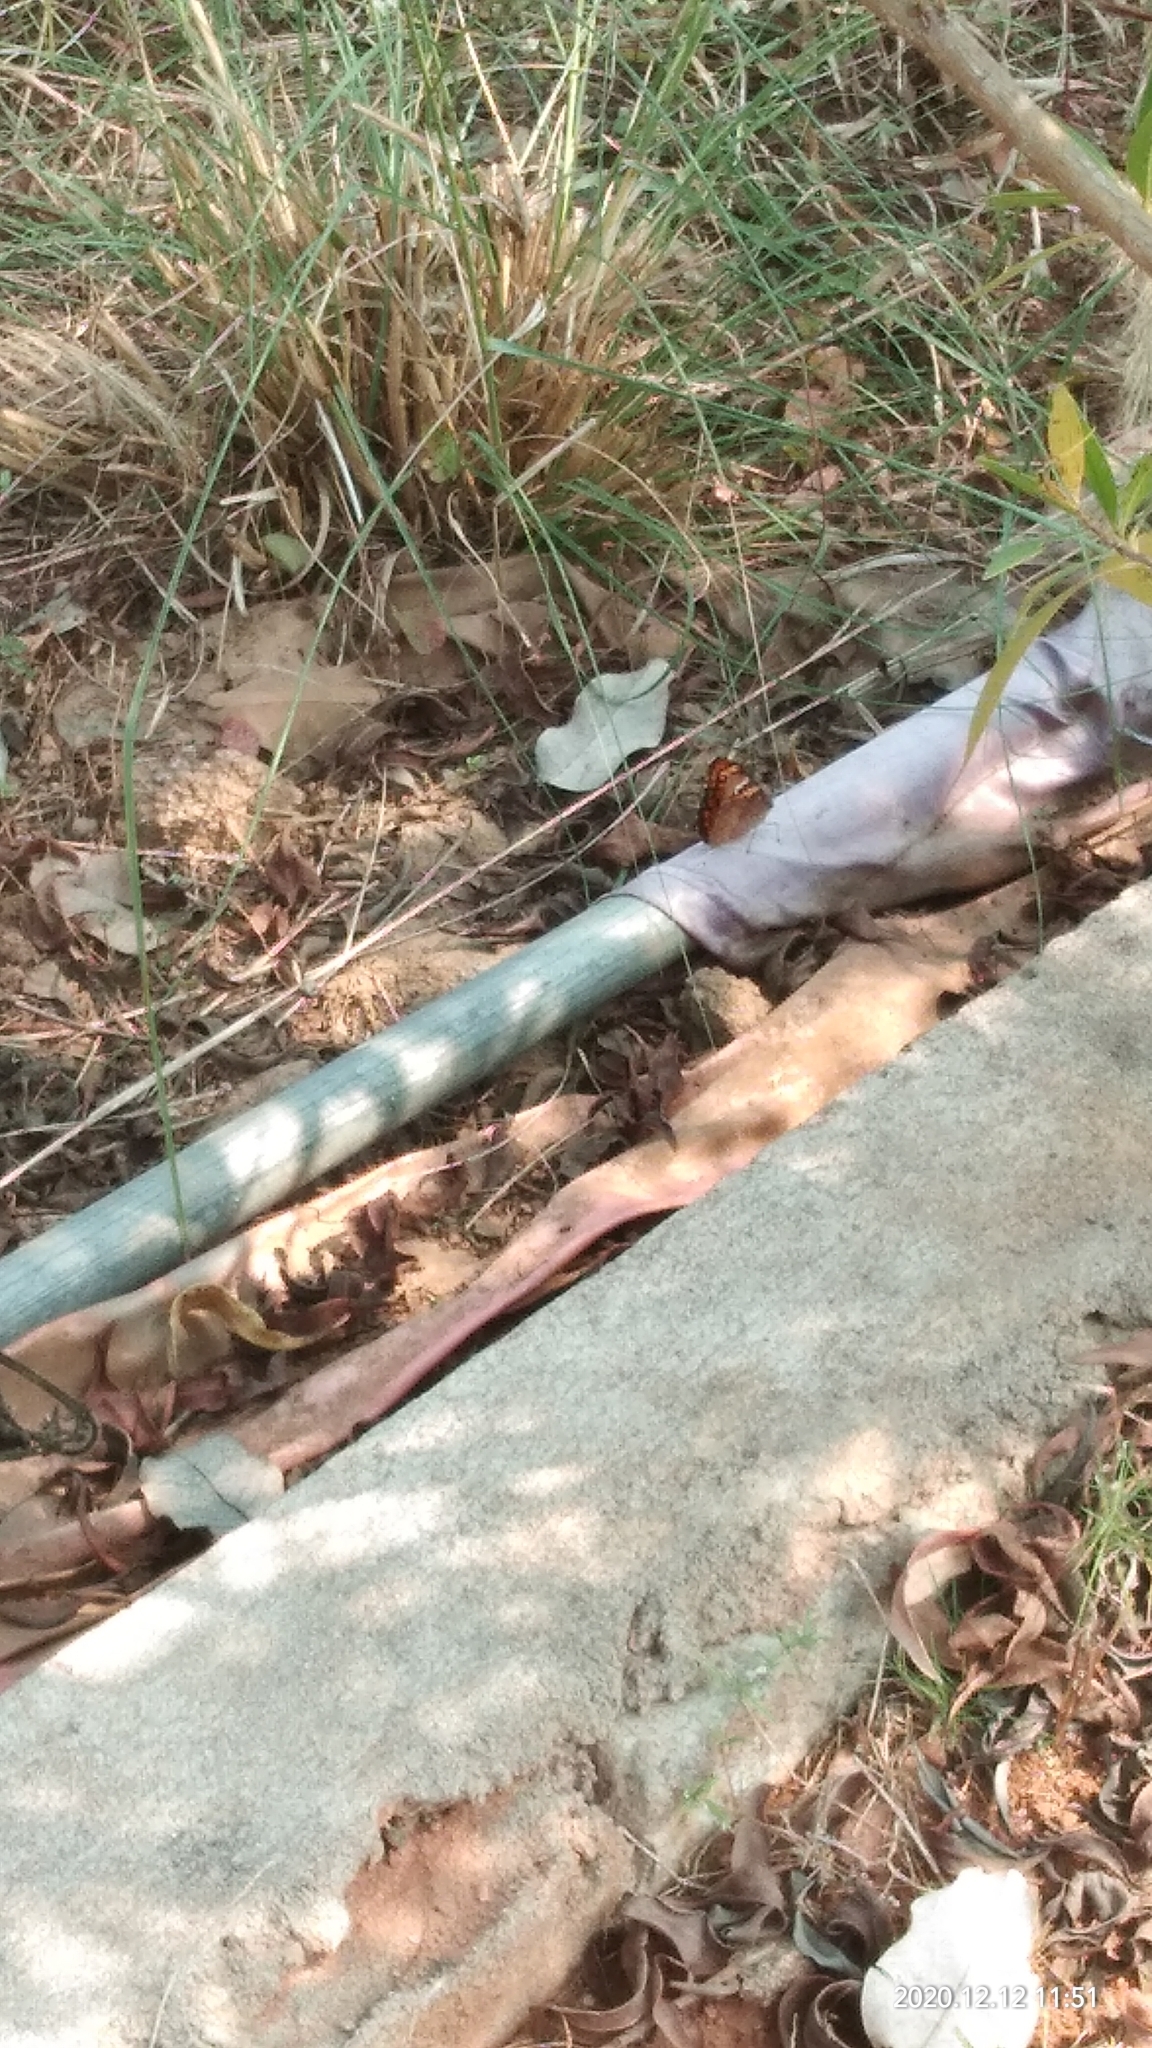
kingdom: Animalia
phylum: Arthropoda
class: Insecta
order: Lepidoptera
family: Nymphalidae
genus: Euthalia
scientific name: Euthalia nais
